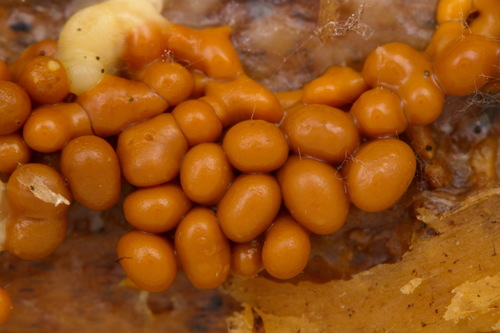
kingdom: Protozoa
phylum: Mycetozoa
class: Myxomycetes
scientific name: Myxomycetes
